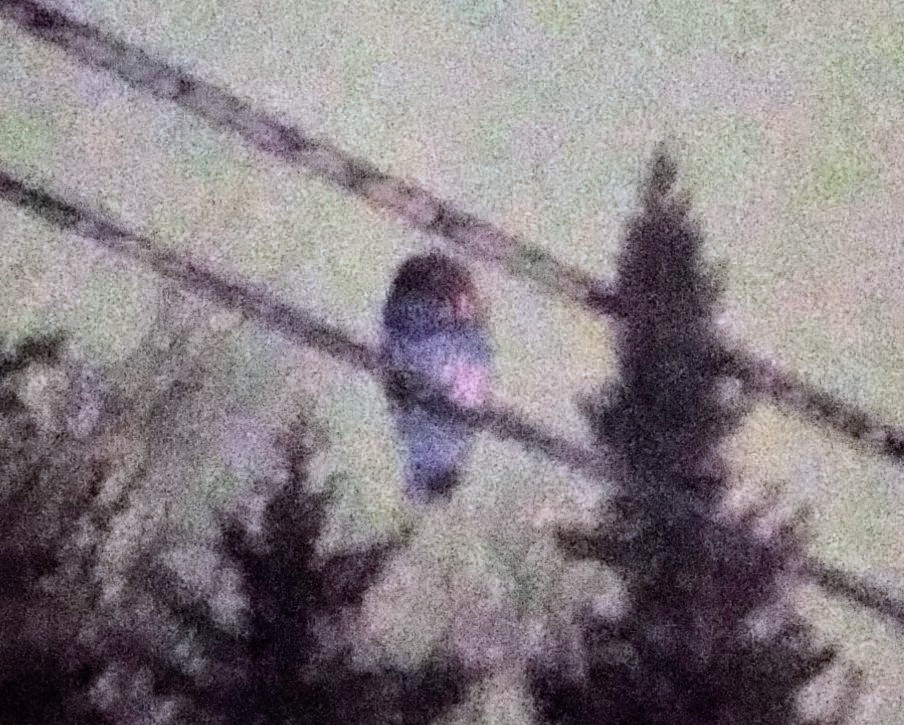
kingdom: Animalia
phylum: Chordata
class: Aves
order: Strigiformes
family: Strigidae
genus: Strix
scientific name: Strix varia
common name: Barred owl
